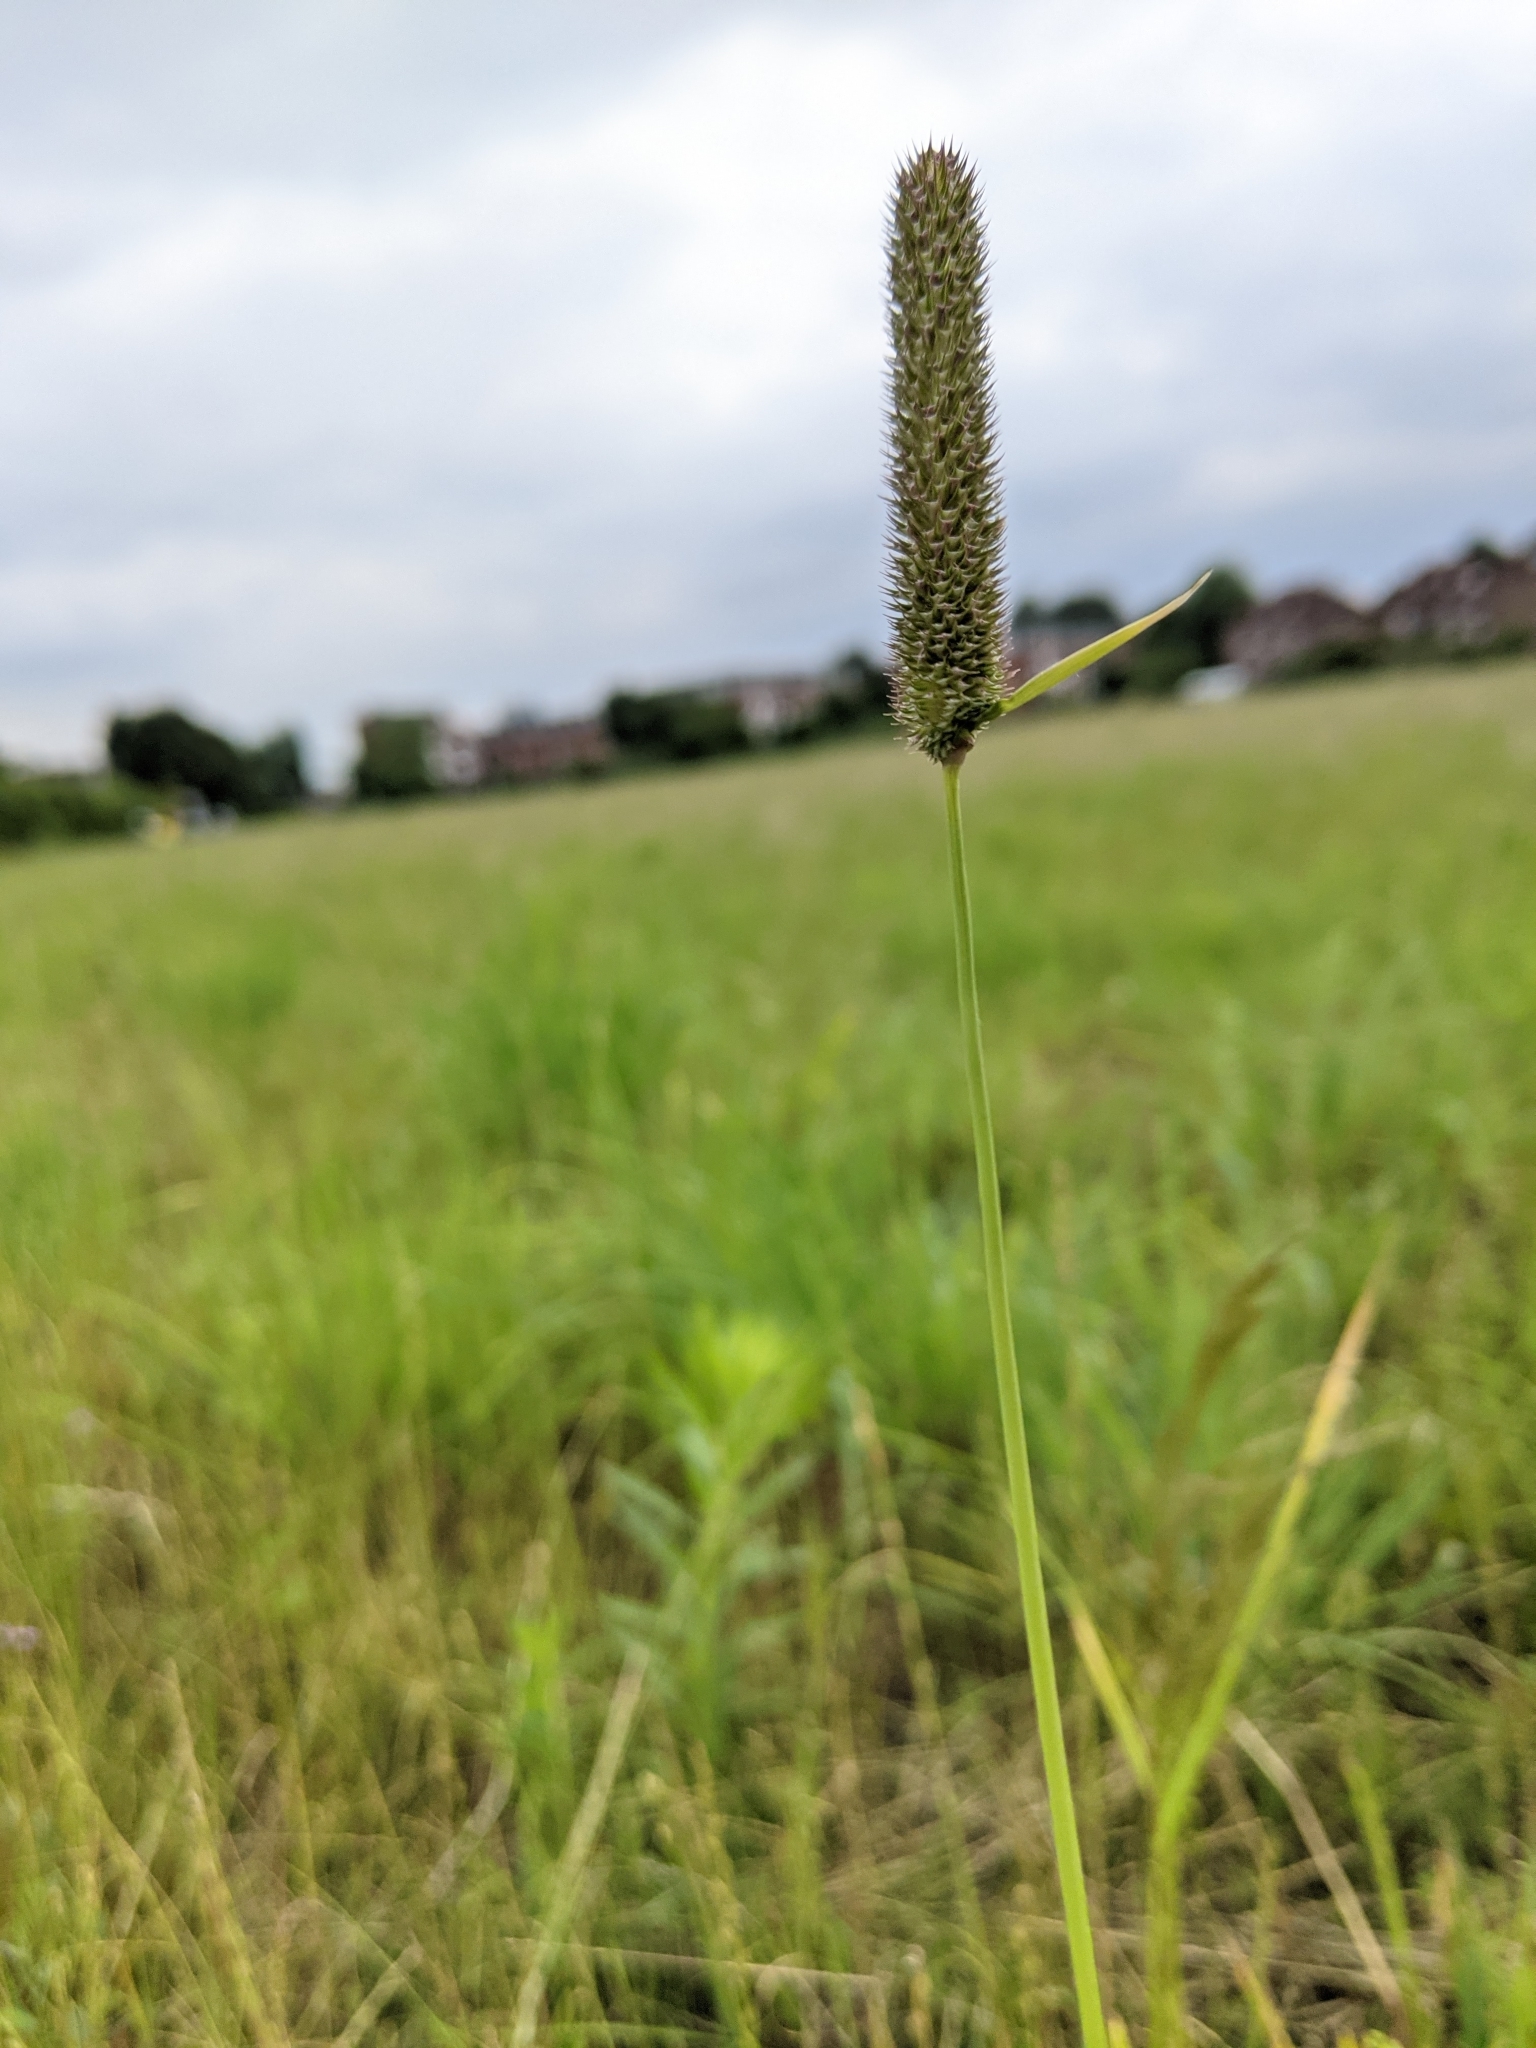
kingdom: Plantae
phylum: Tracheophyta
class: Liliopsida
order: Poales
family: Poaceae
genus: Phleum
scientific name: Phleum pratense
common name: Timothy grass
